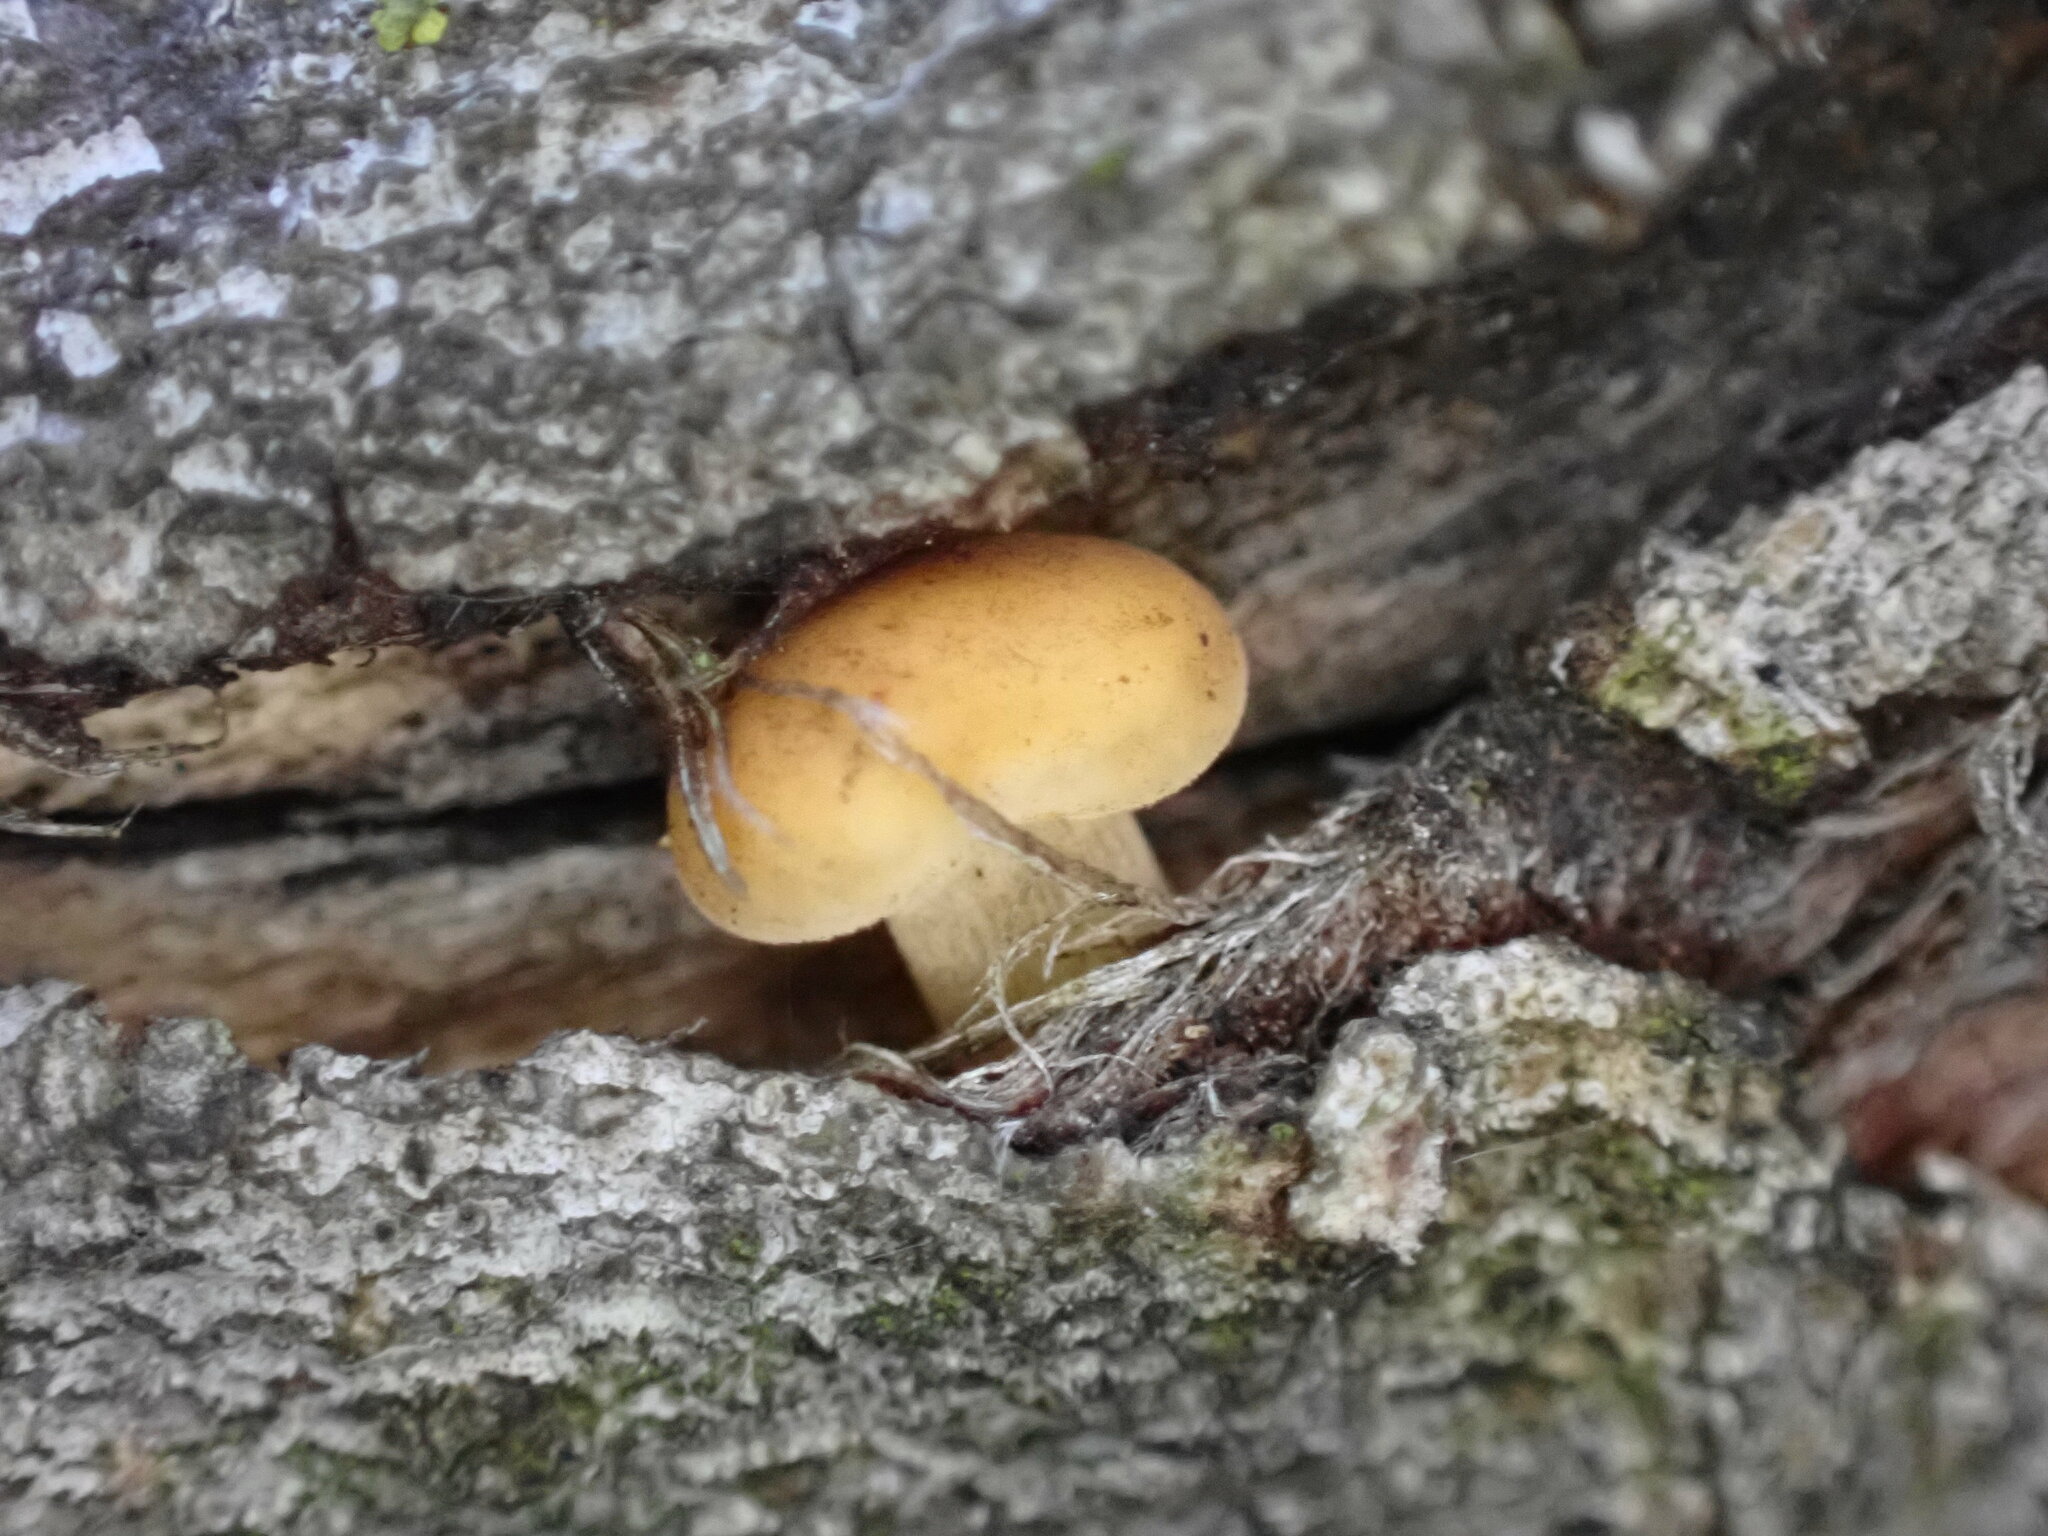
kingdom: Fungi
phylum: Basidiomycota
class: Agaricomycetes
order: Agaricales
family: Physalacriaceae
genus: Flammulina
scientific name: Flammulina
